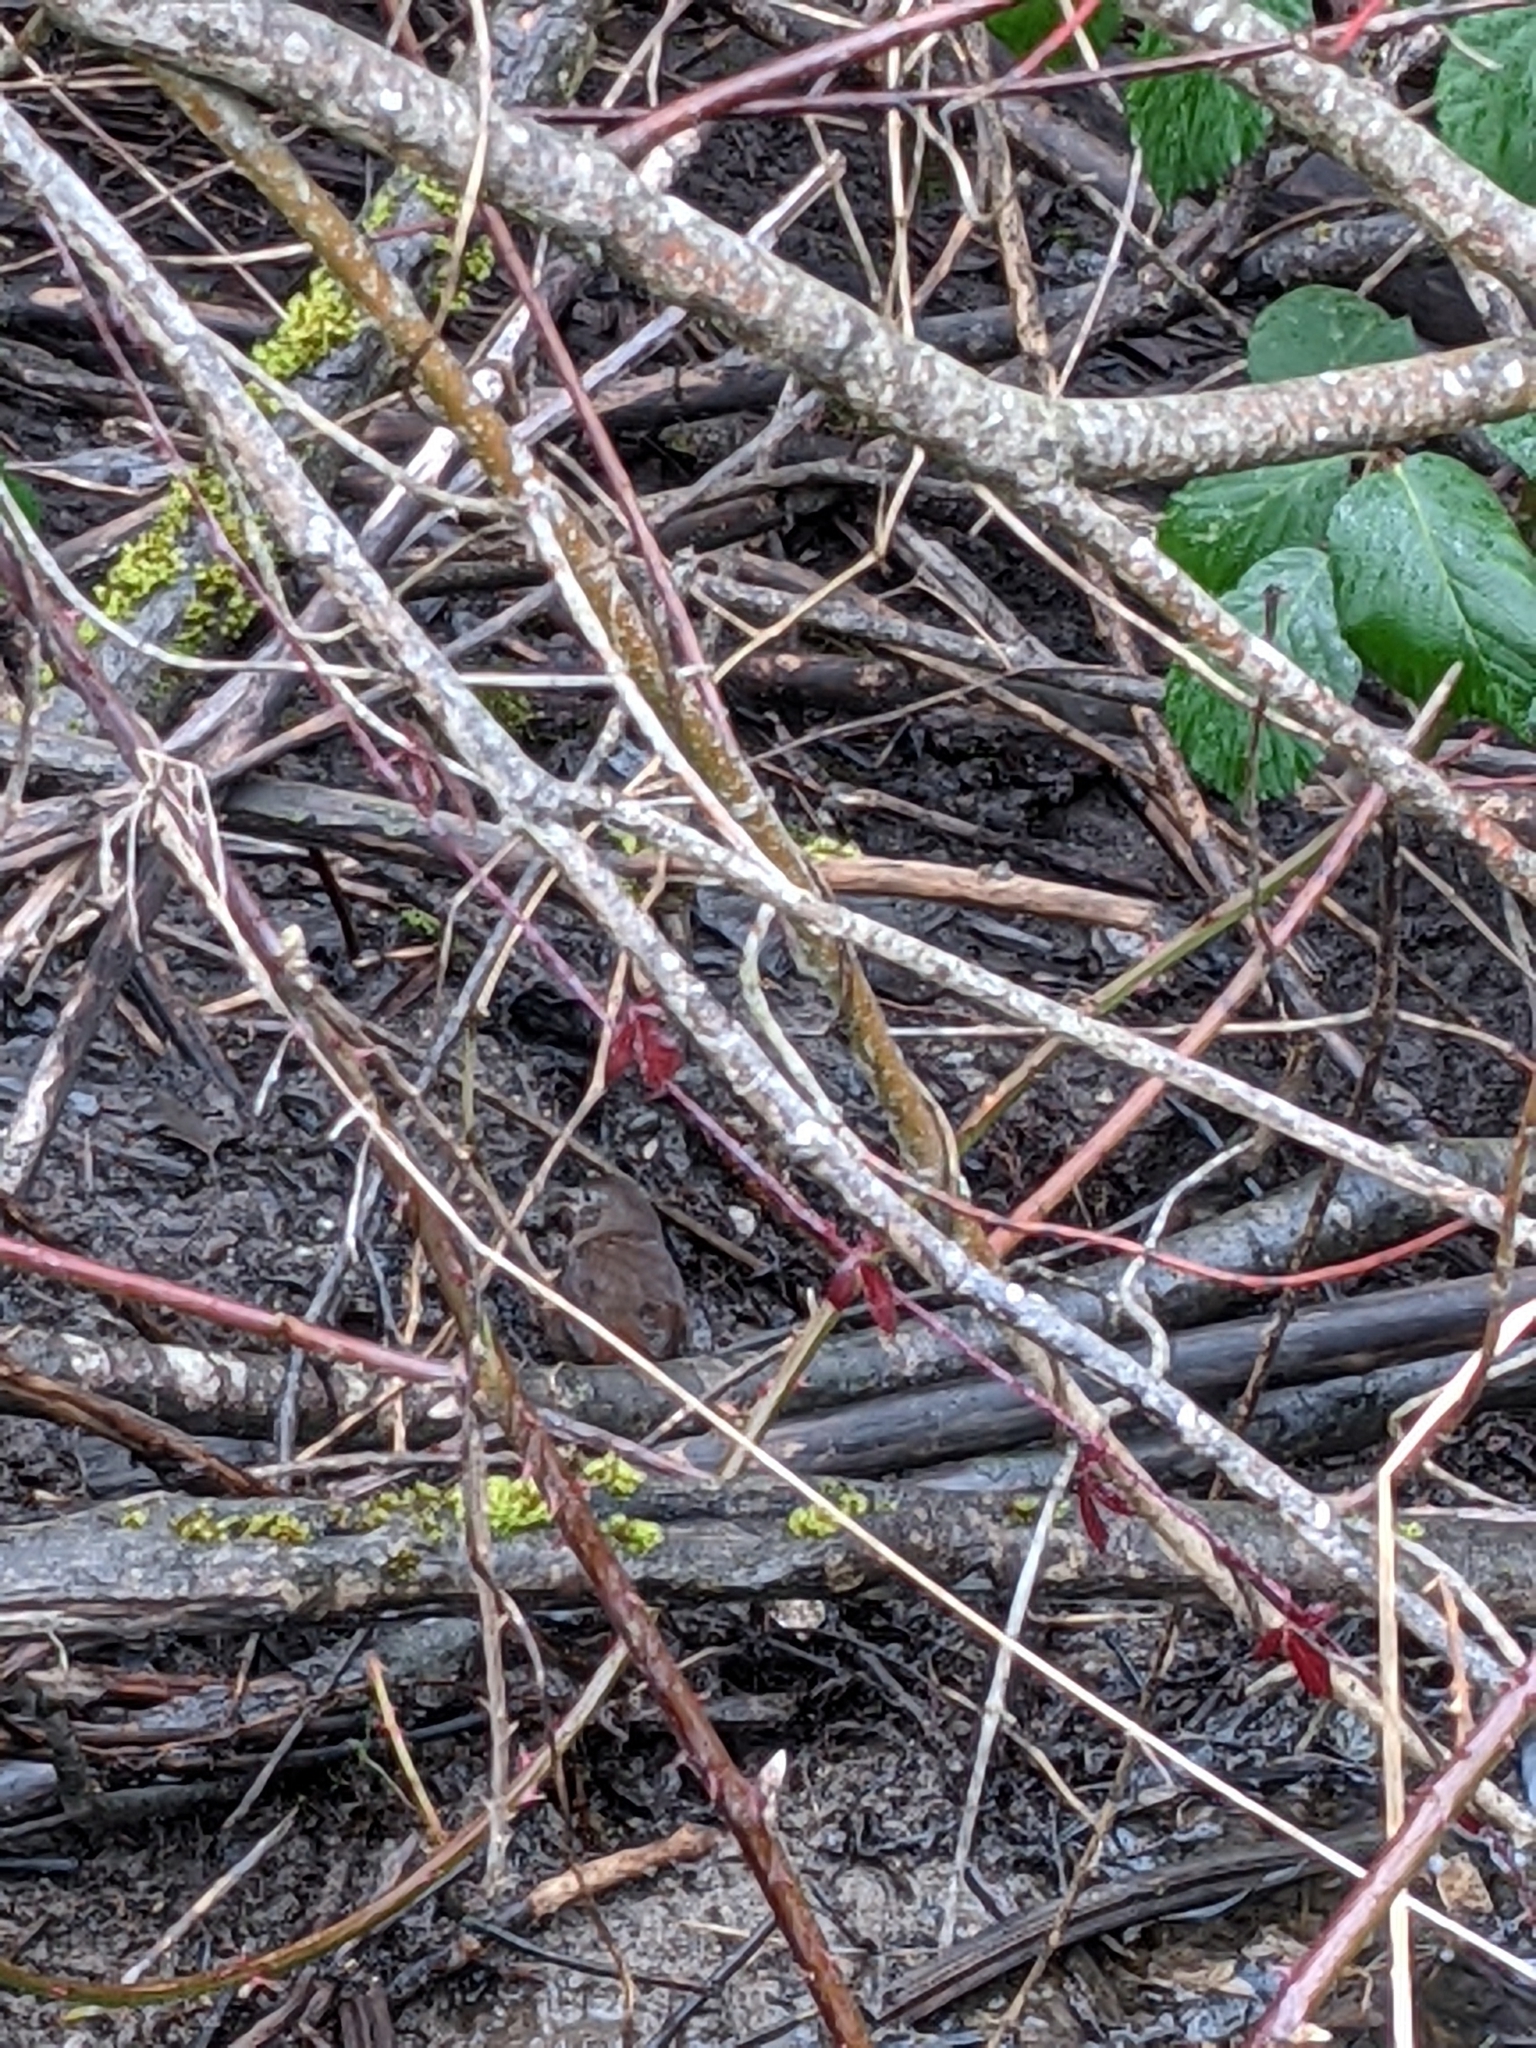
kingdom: Animalia
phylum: Chordata
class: Aves
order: Passeriformes
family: Passerellidae
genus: Passerella
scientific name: Passerella iliaca
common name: Fox sparrow
